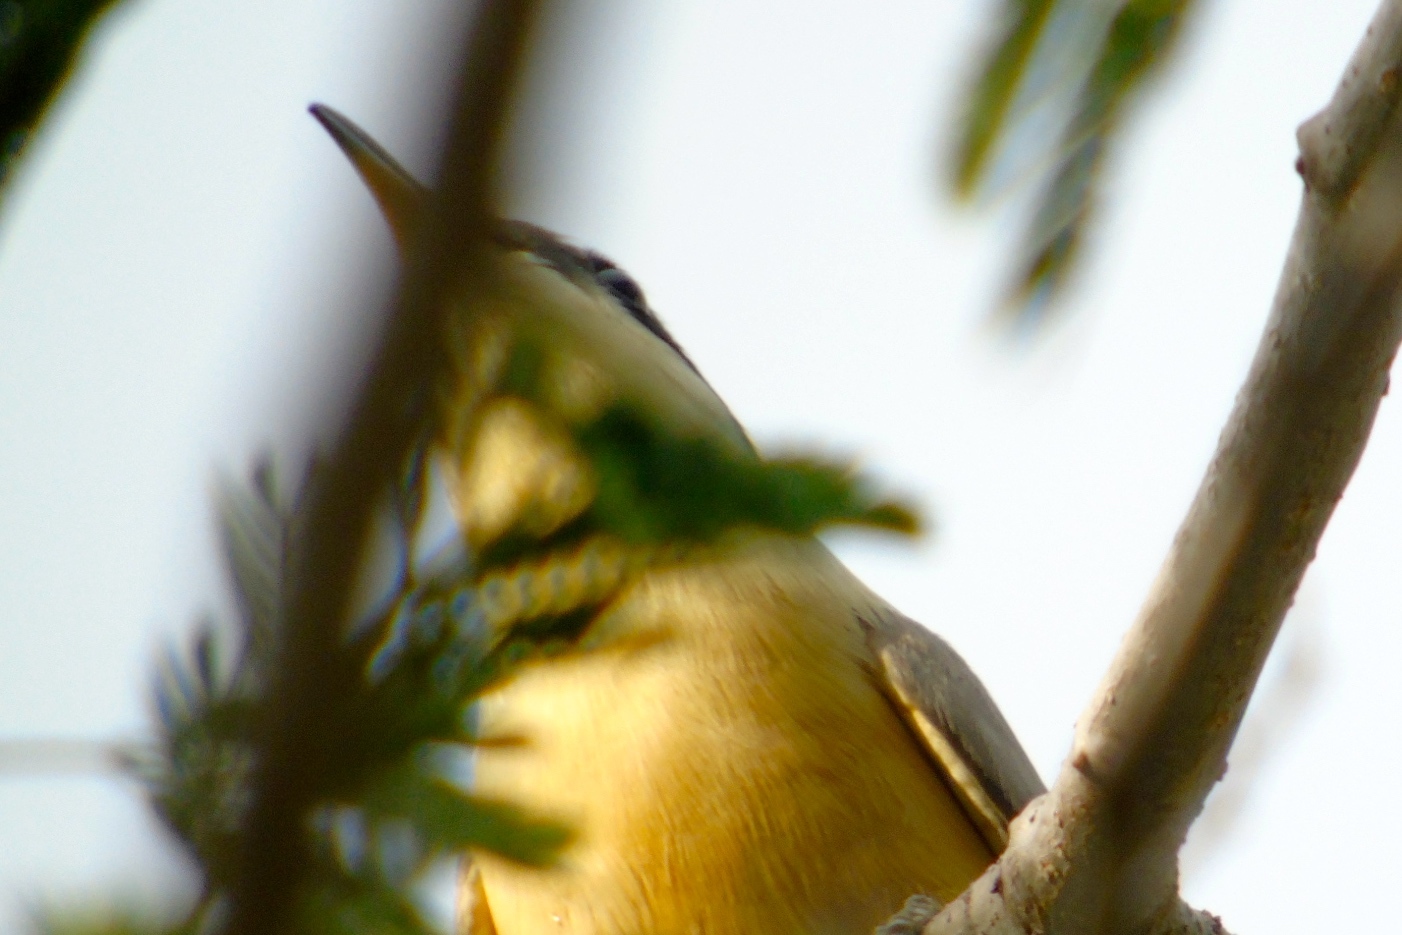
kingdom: Animalia
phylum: Chordata
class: Aves
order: Cuculiformes
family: Cuculidae
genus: Coccyzus
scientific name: Coccyzus minor
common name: Mangrove cuckoo
